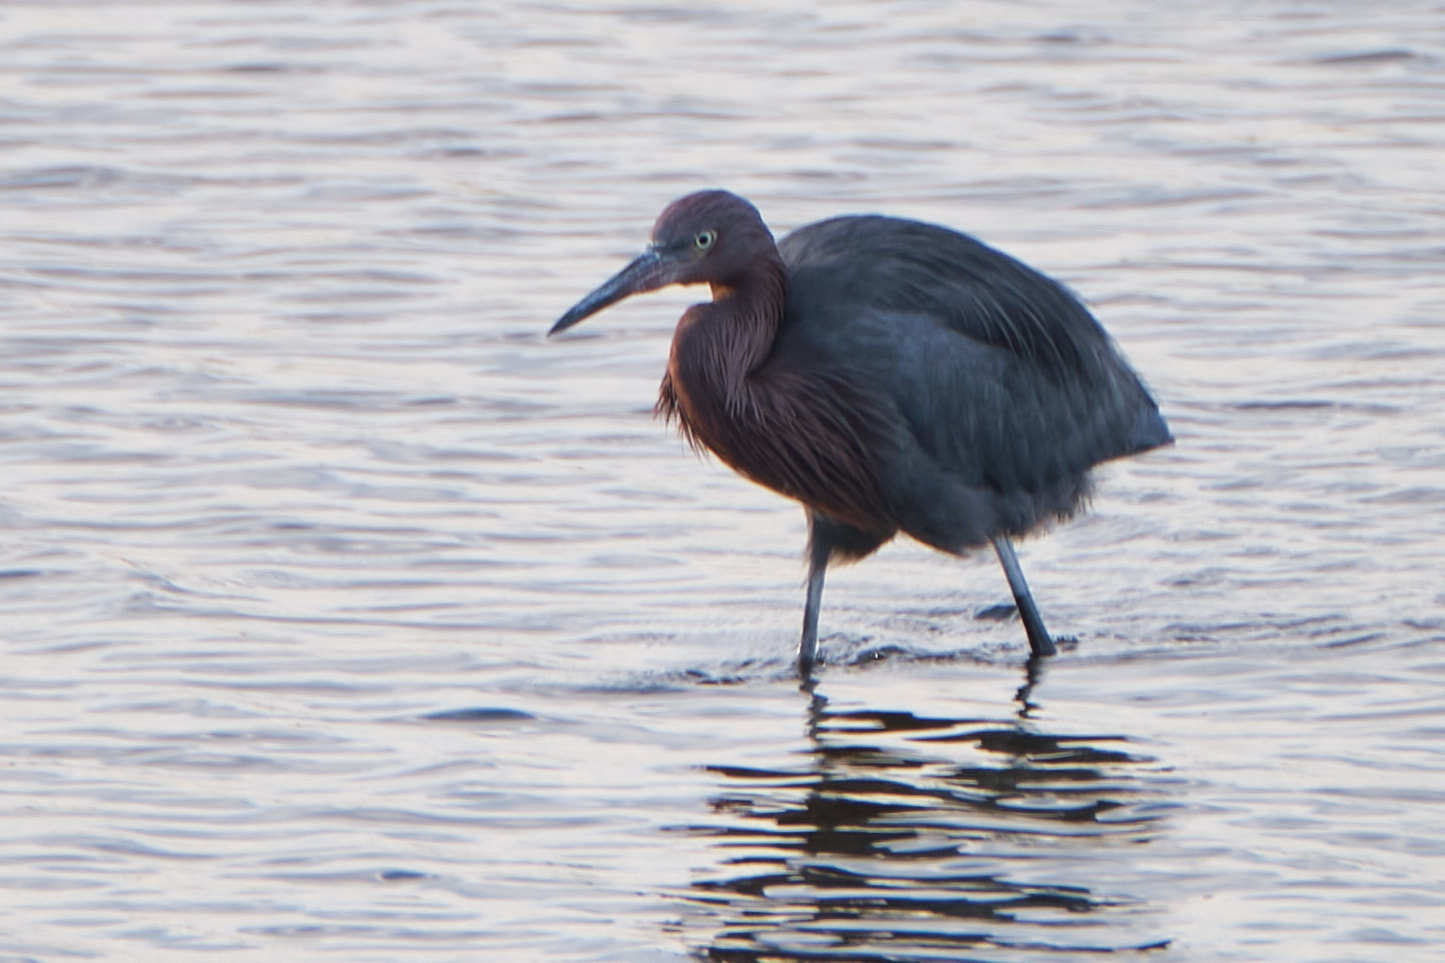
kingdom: Animalia
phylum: Chordata
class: Aves
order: Pelecaniformes
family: Ardeidae
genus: Egretta
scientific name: Egretta rufescens
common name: Reddish egret
